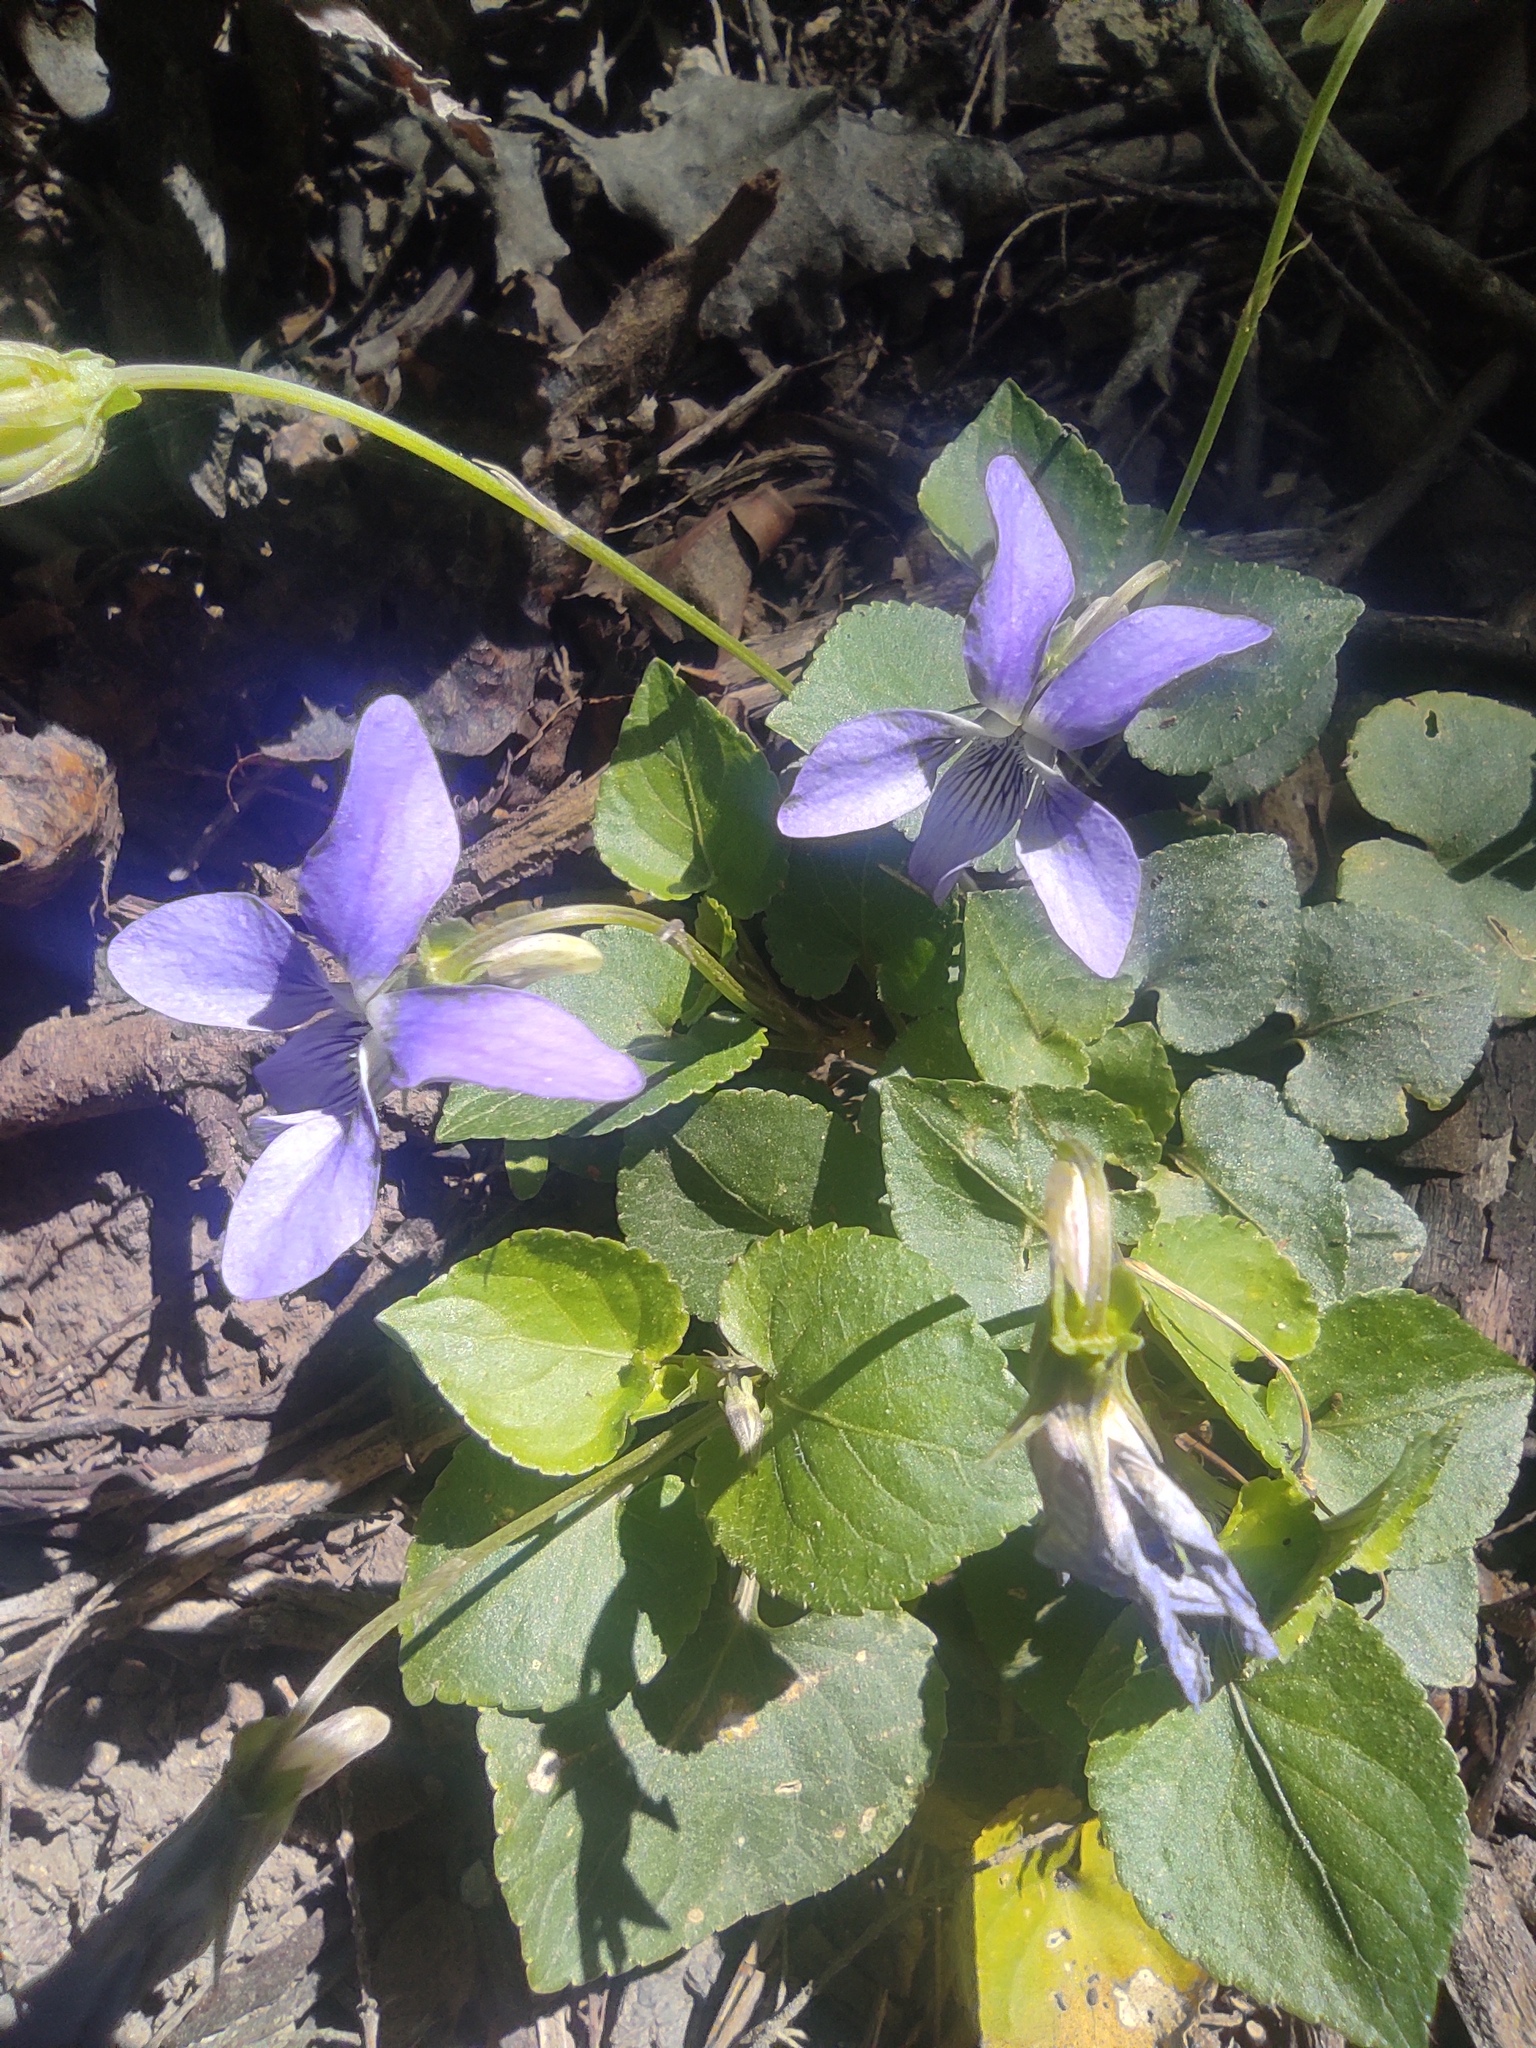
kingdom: Plantae
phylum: Tracheophyta
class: Magnoliopsida
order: Malpighiales
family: Violaceae
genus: Viola
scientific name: Viola riviniana
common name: Common dog-violet
